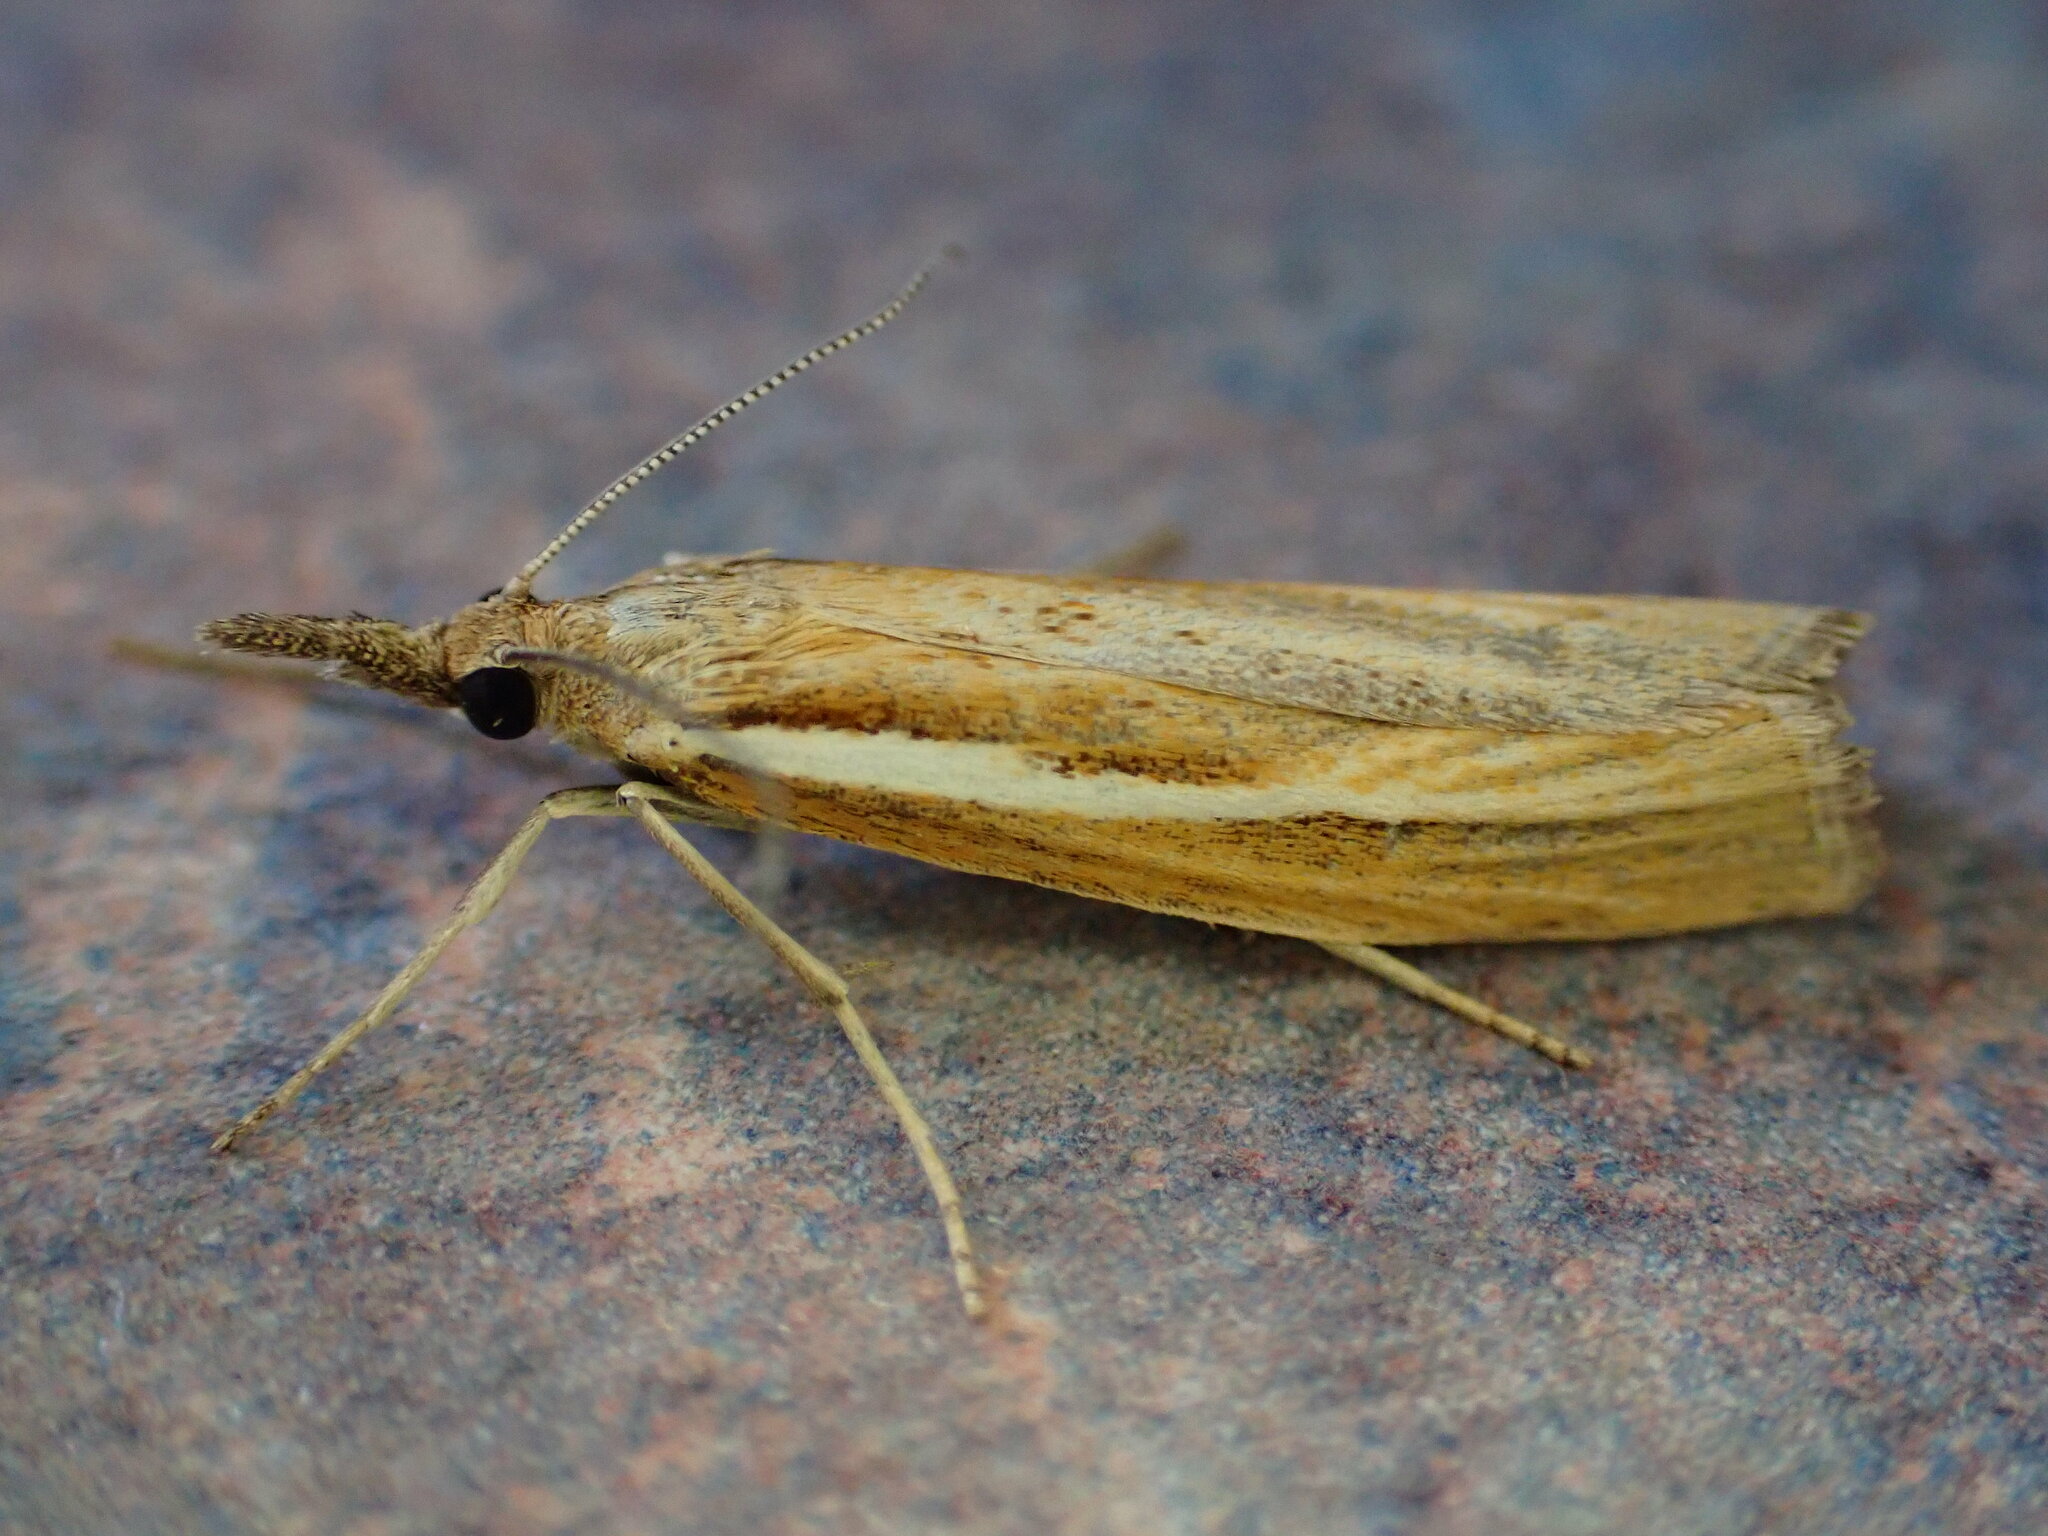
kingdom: Animalia
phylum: Arthropoda
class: Insecta
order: Lepidoptera
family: Crambidae
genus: Agriphila
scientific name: Agriphila tristellus
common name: Common grass-veneer
